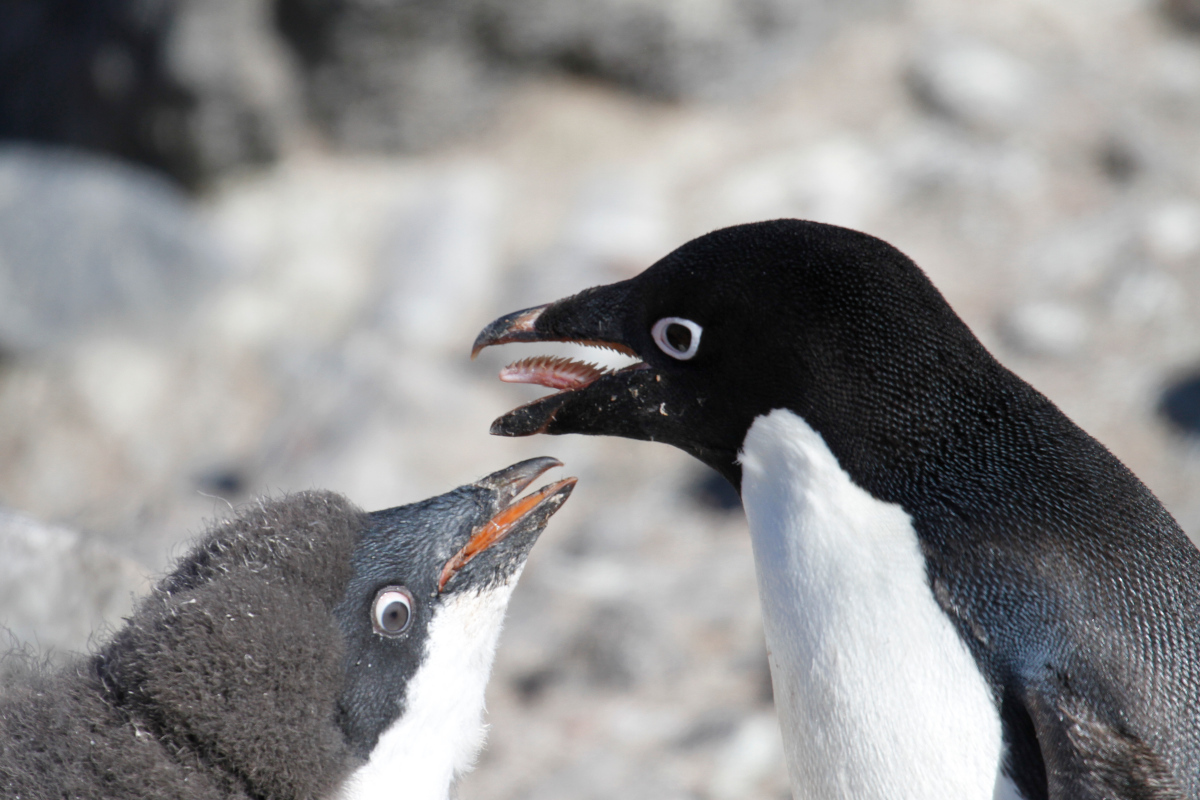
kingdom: Animalia
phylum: Chordata
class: Aves
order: Sphenisciformes
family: Spheniscidae
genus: Pygoscelis
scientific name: Pygoscelis adeliae
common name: Adelie penguin
